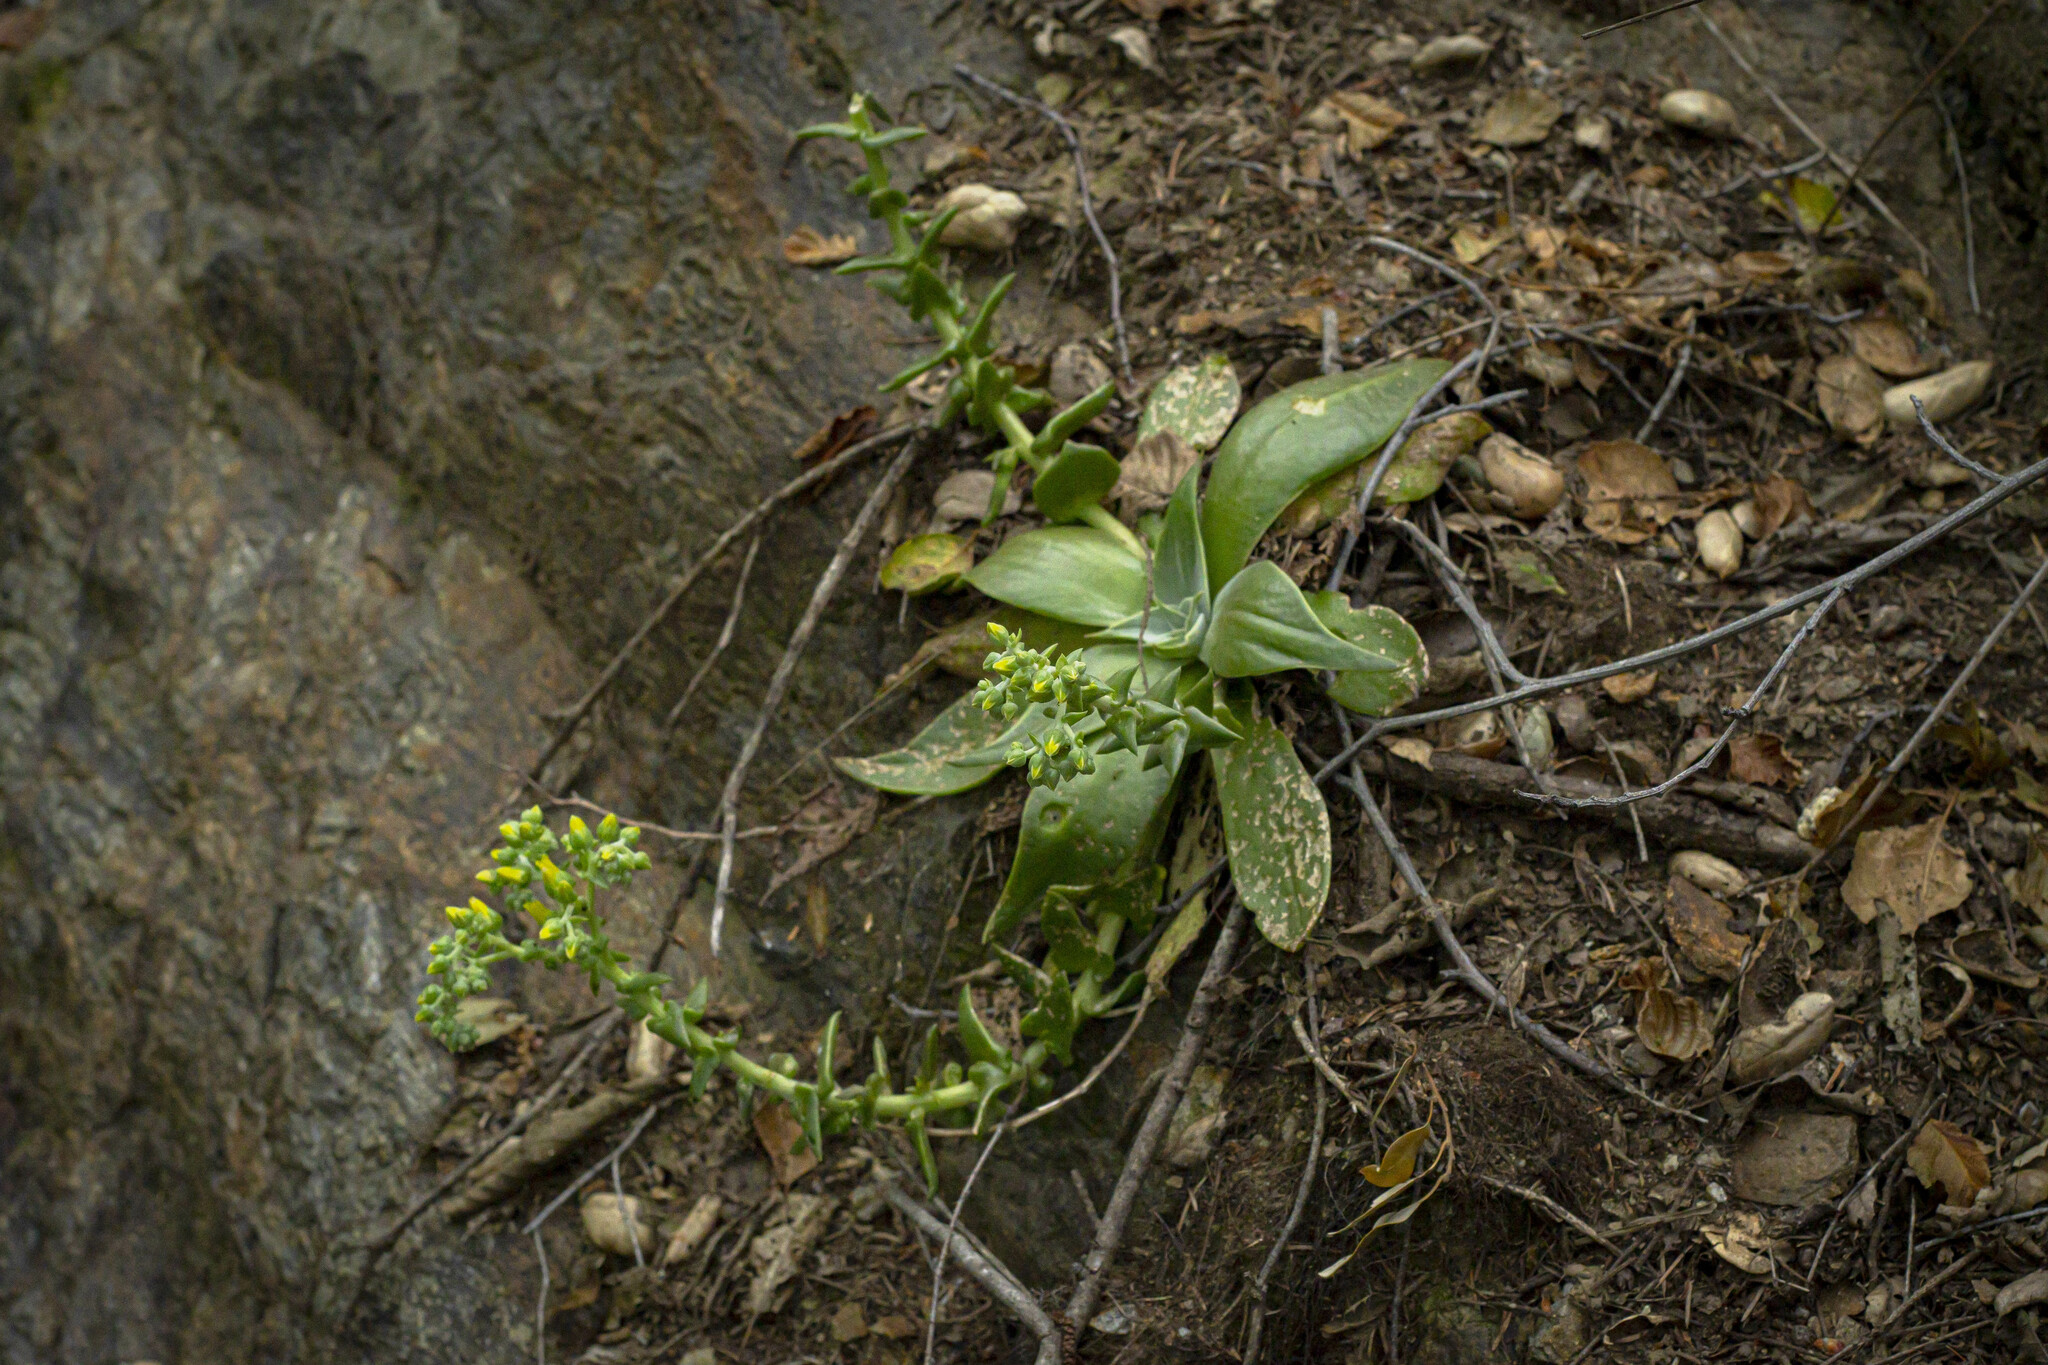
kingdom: Plantae
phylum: Tracheophyta
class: Magnoliopsida
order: Saxifragales
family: Crassulaceae
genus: Dudleya
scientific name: Dudleya cymosa
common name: Canyon dudleya
